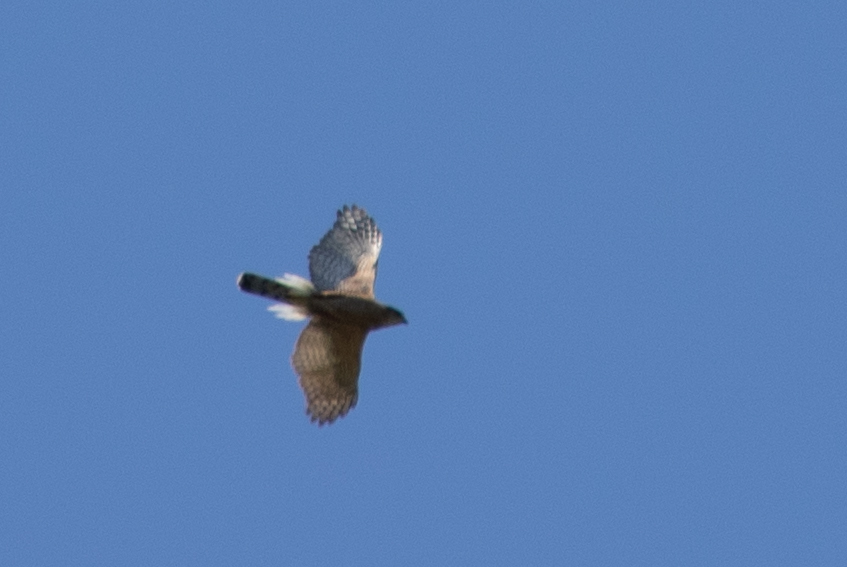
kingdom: Animalia
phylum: Chordata
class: Aves
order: Accipitriformes
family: Accipitridae
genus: Accipiter
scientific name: Accipiter cooperii
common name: Cooper's hawk
